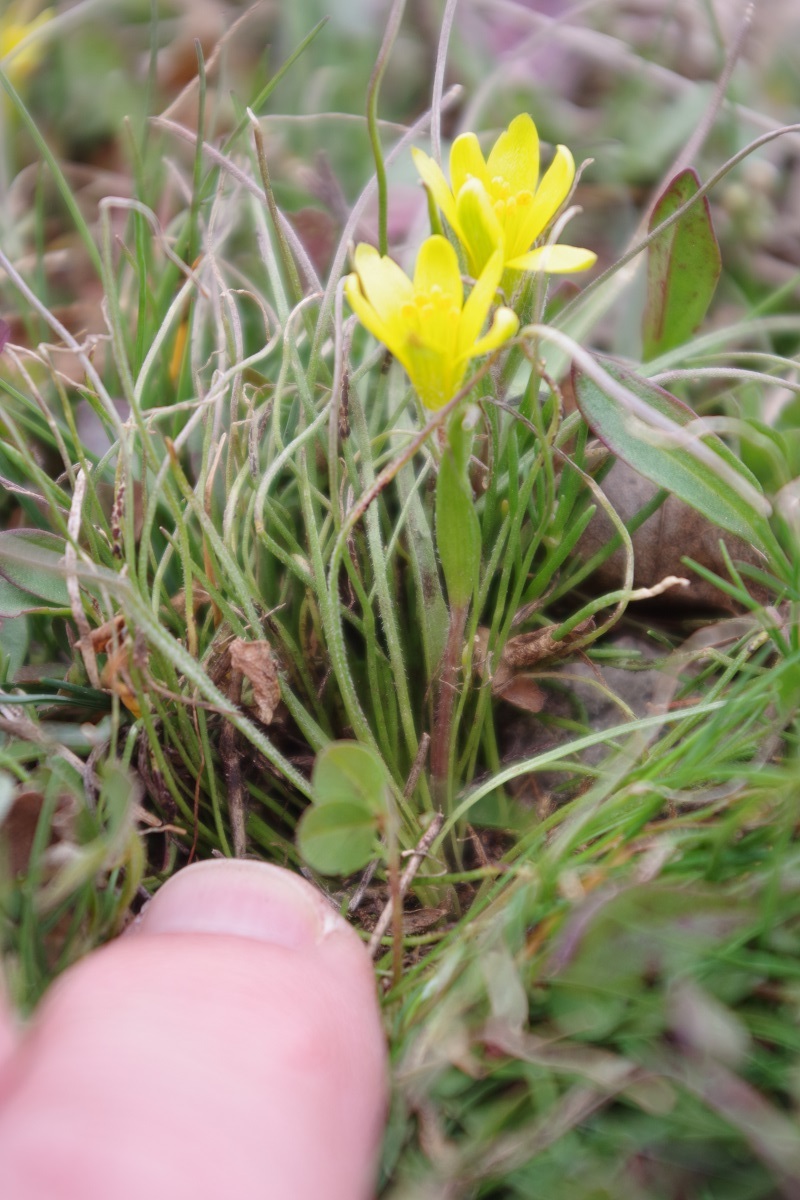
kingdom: Plantae
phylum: Tracheophyta
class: Liliopsida
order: Liliales
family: Liliaceae
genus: Gagea
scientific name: Gagea bohemica
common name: Early star-of-bethlehem
